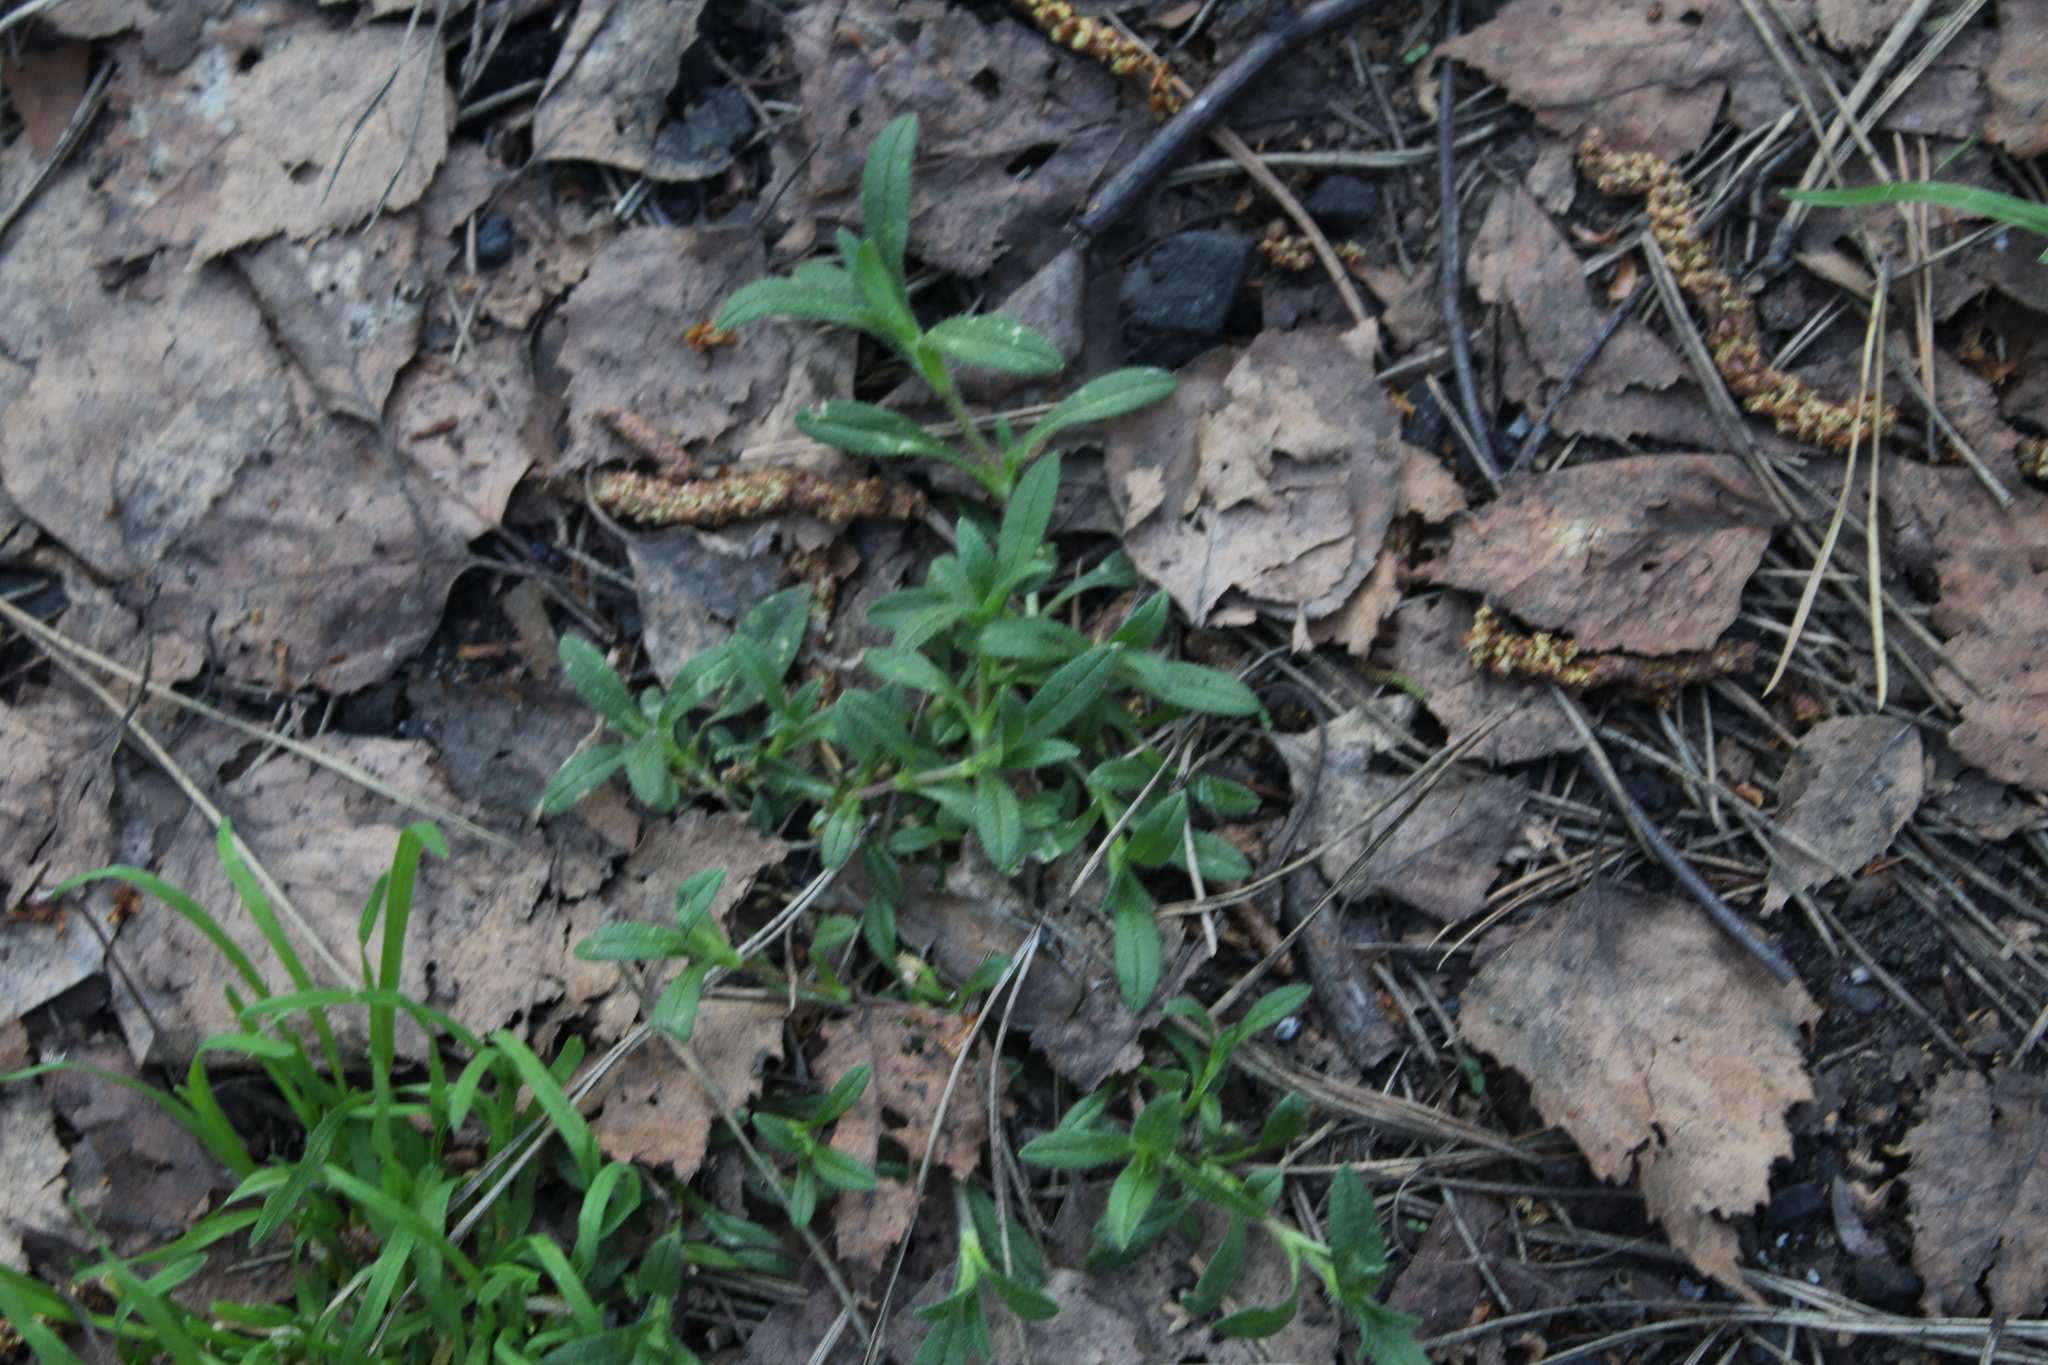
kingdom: Plantae
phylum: Tracheophyta
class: Magnoliopsida
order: Caryophyllales
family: Caryophyllaceae
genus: Cerastium
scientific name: Cerastium holosteoides
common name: Big chickweed
